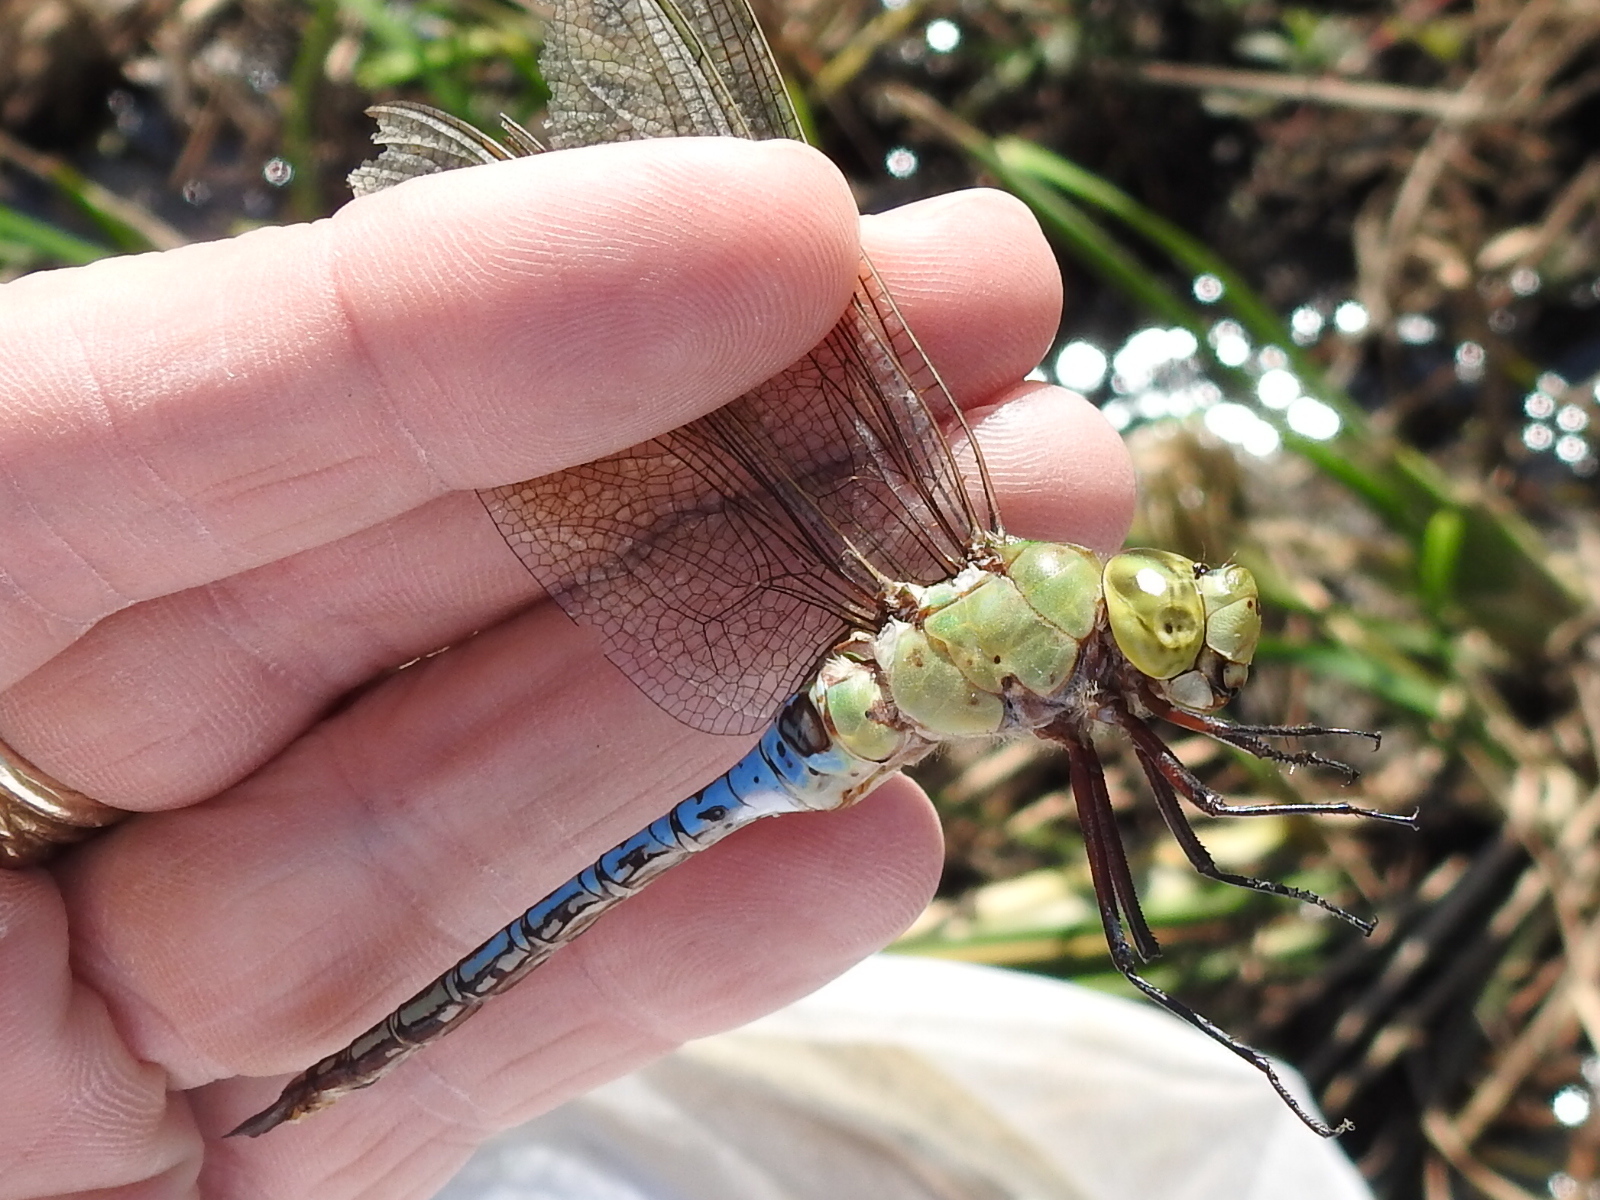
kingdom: Animalia
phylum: Arthropoda
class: Insecta
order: Odonata
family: Aeshnidae
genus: Anax
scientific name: Anax junius
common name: Common green darner
